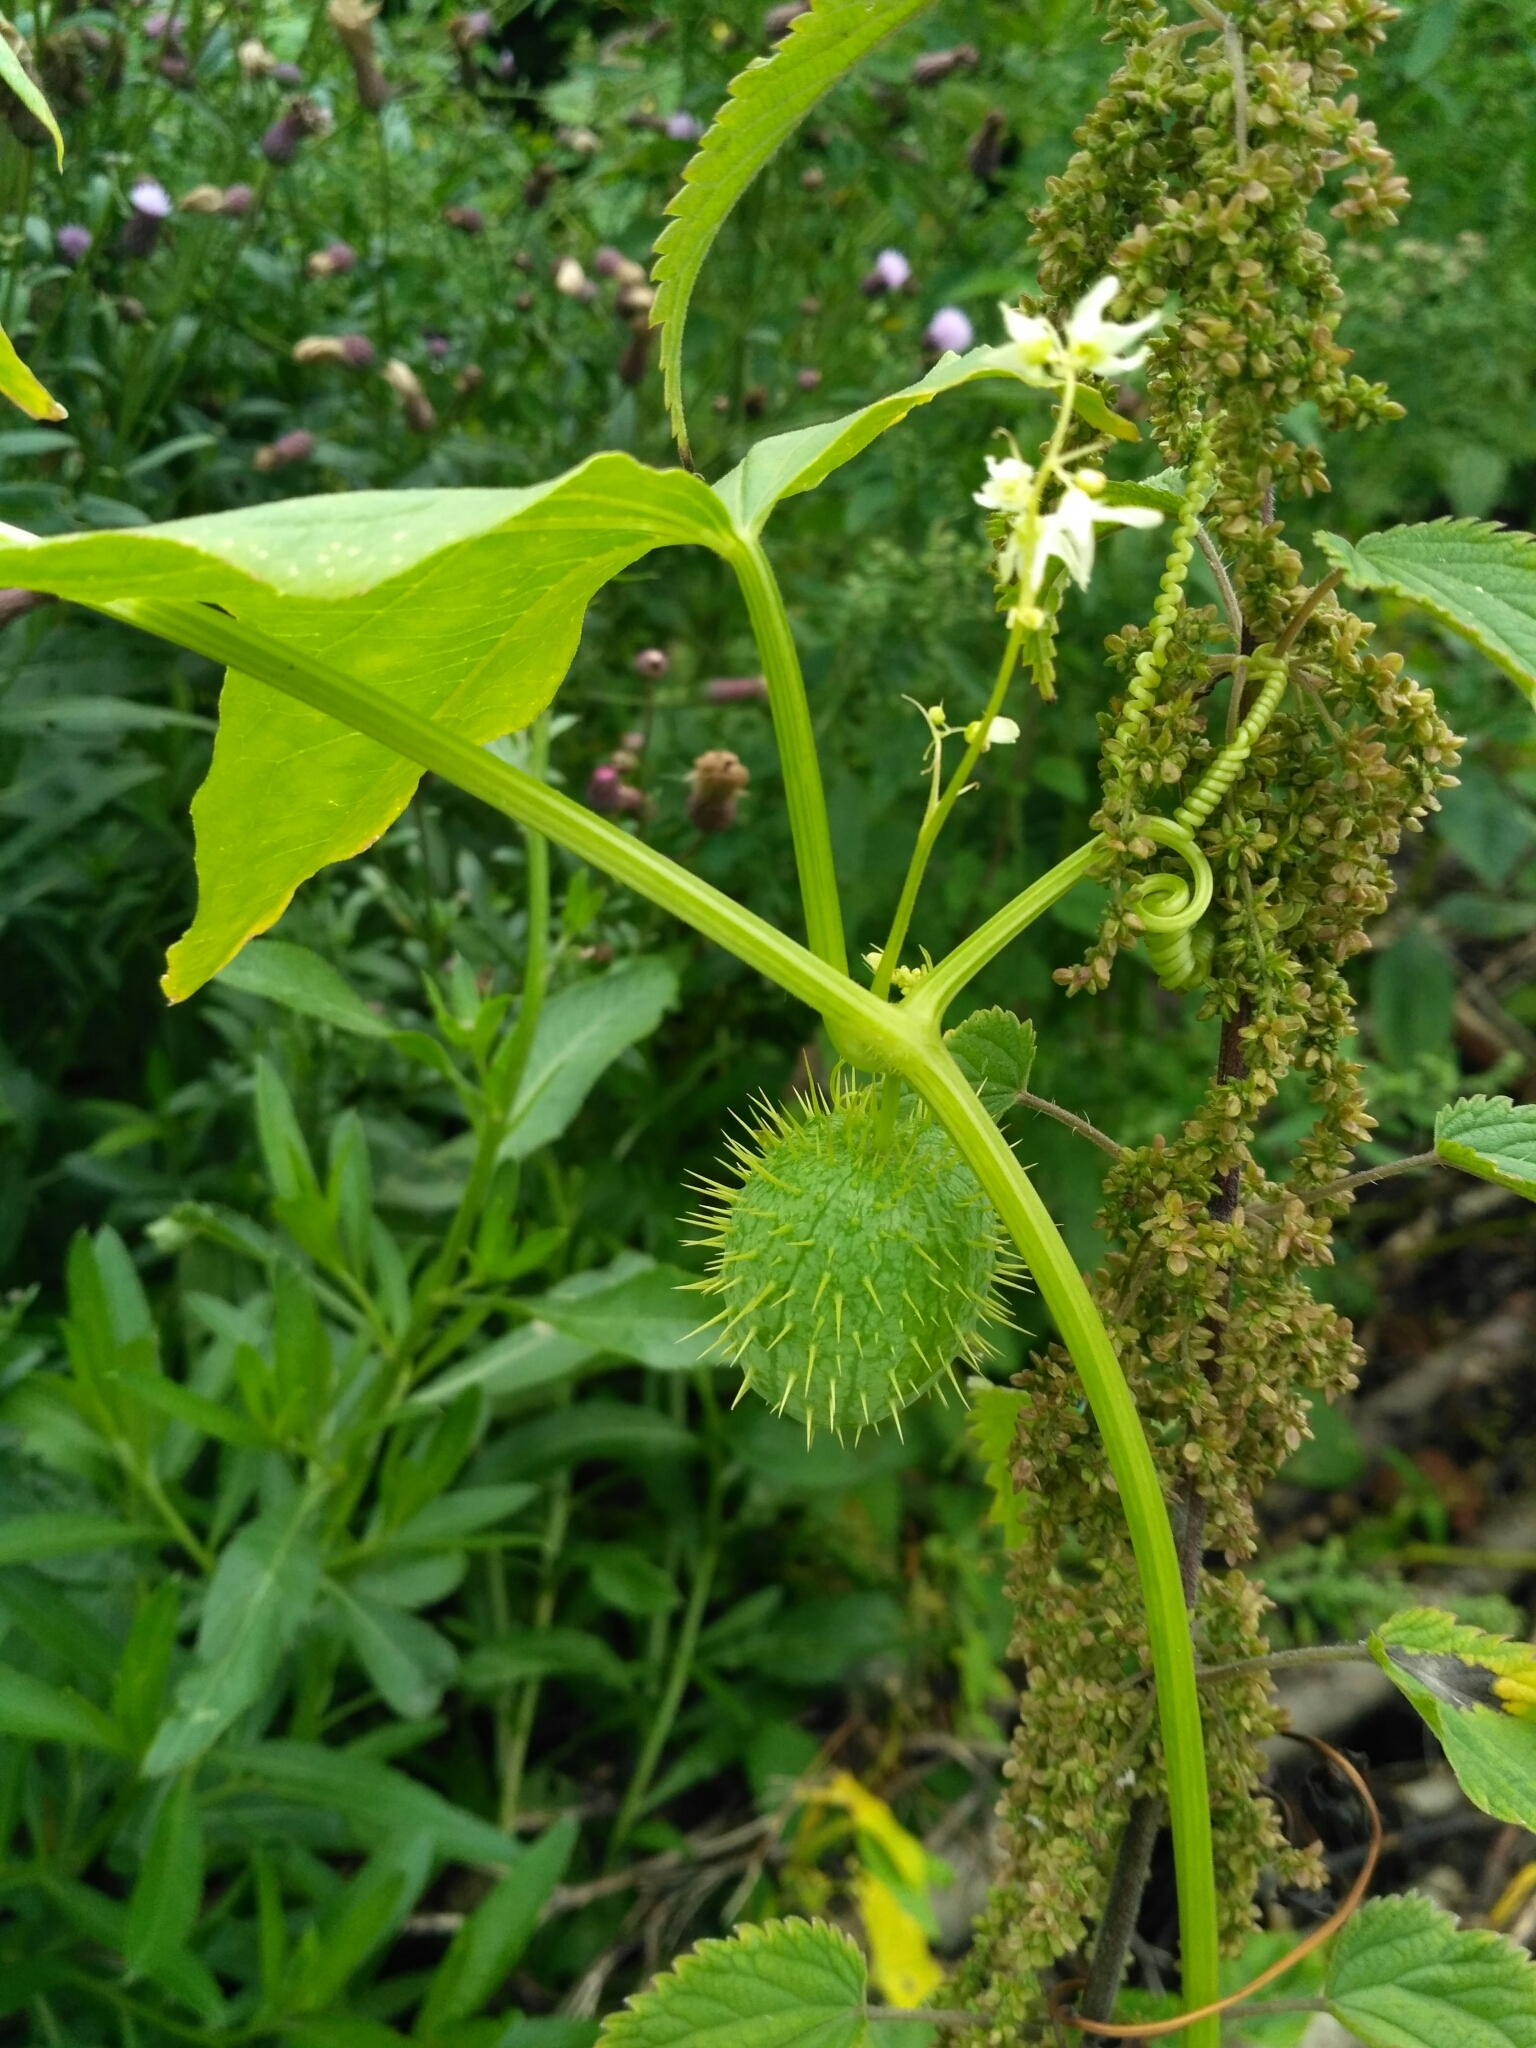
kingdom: Plantae
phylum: Tracheophyta
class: Magnoliopsida
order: Cucurbitales
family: Cucurbitaceae
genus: Echinocystis
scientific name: Echinocystis lobata
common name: Wild cucumber
